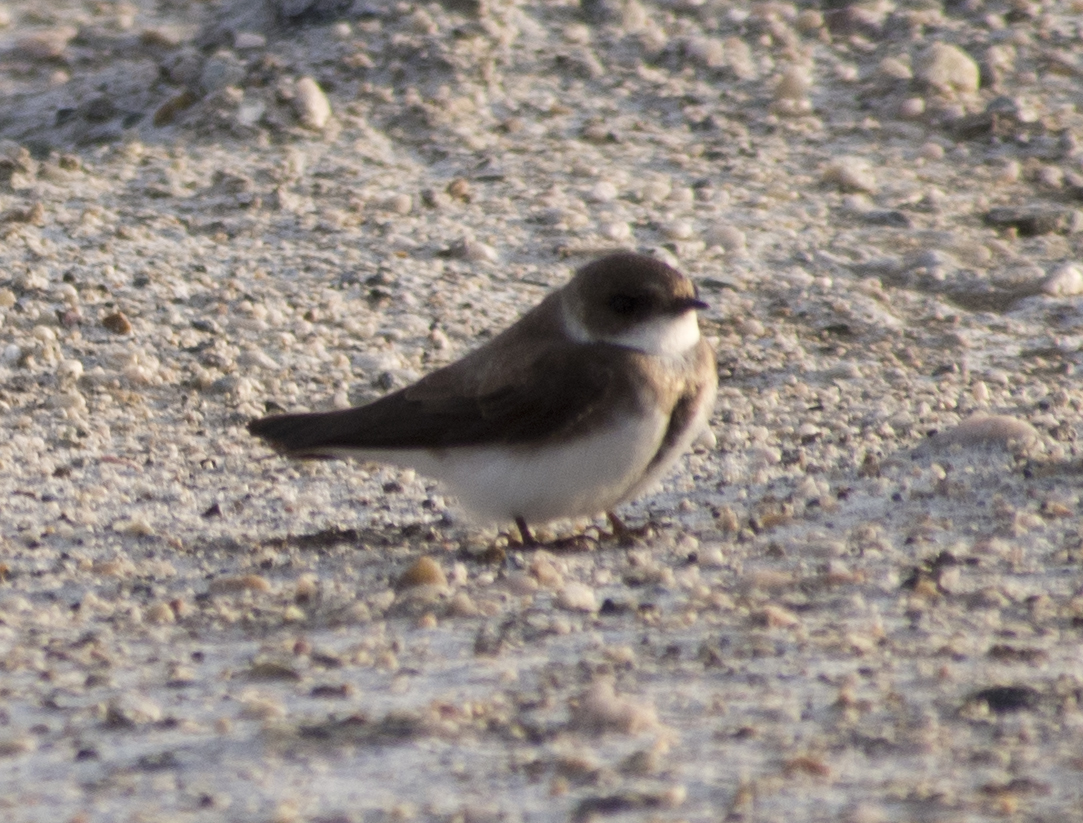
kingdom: Animalia
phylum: Chordata
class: Aves
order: Passeriformes
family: Hirundinidae
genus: Riparia
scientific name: Riparia riparia
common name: Sand martin
